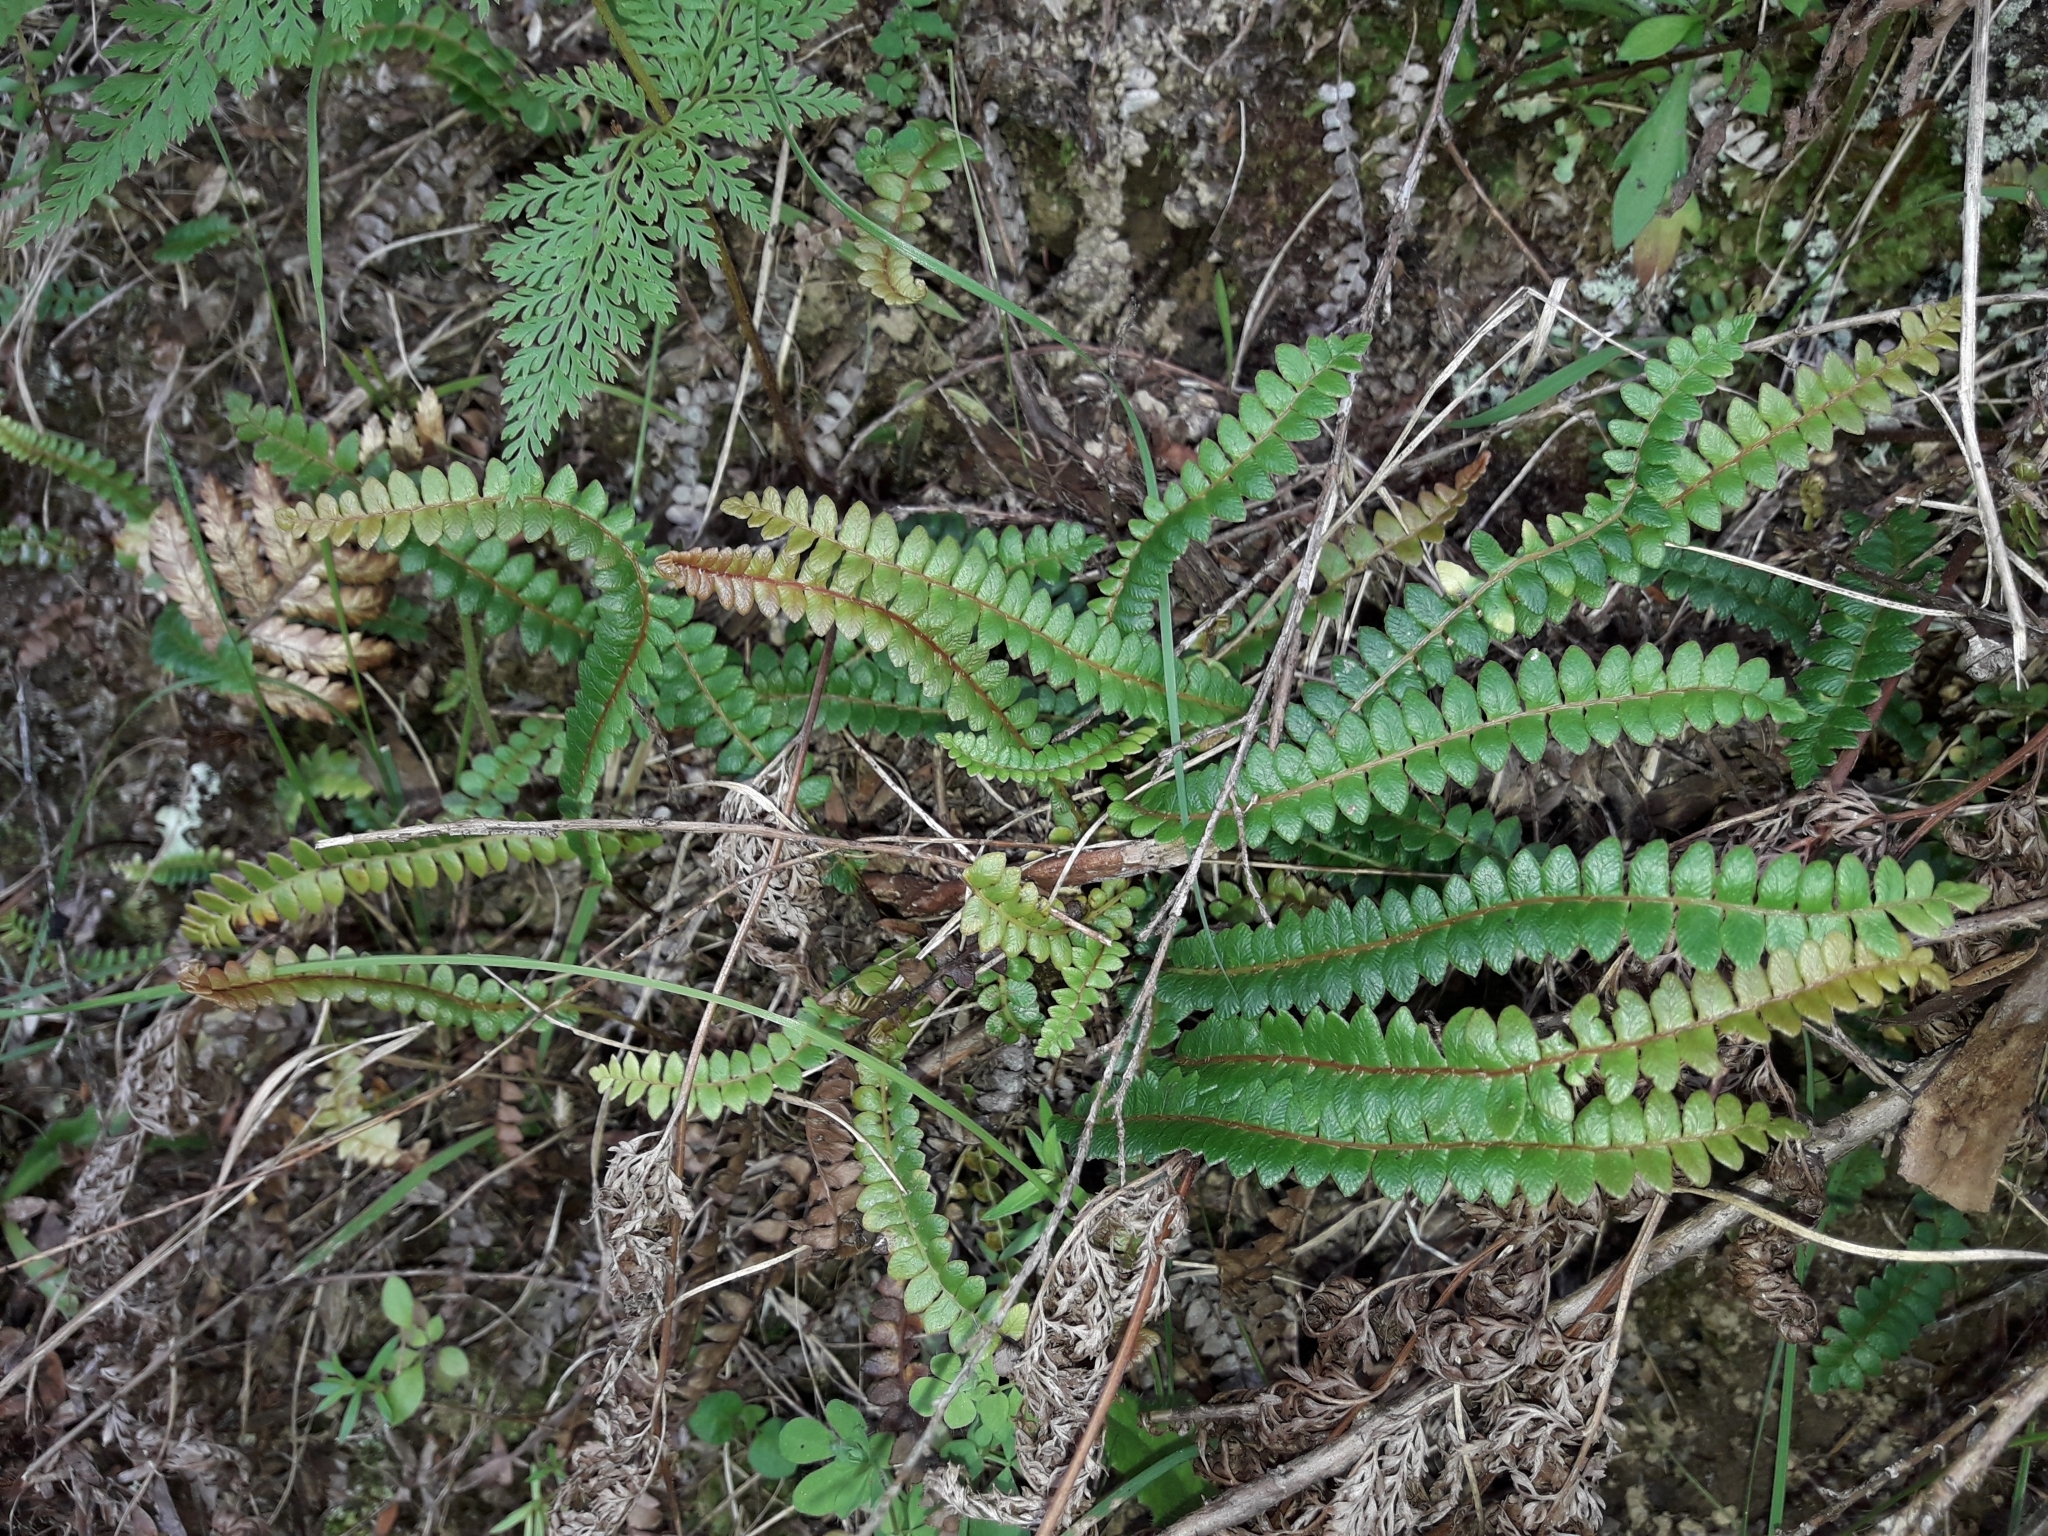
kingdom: Plantae
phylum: Tracheophyta
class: Polypodiopsida
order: Polypodiales
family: Blechnaceae
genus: Austroblechnum
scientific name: Austroblechnum penna-marina
